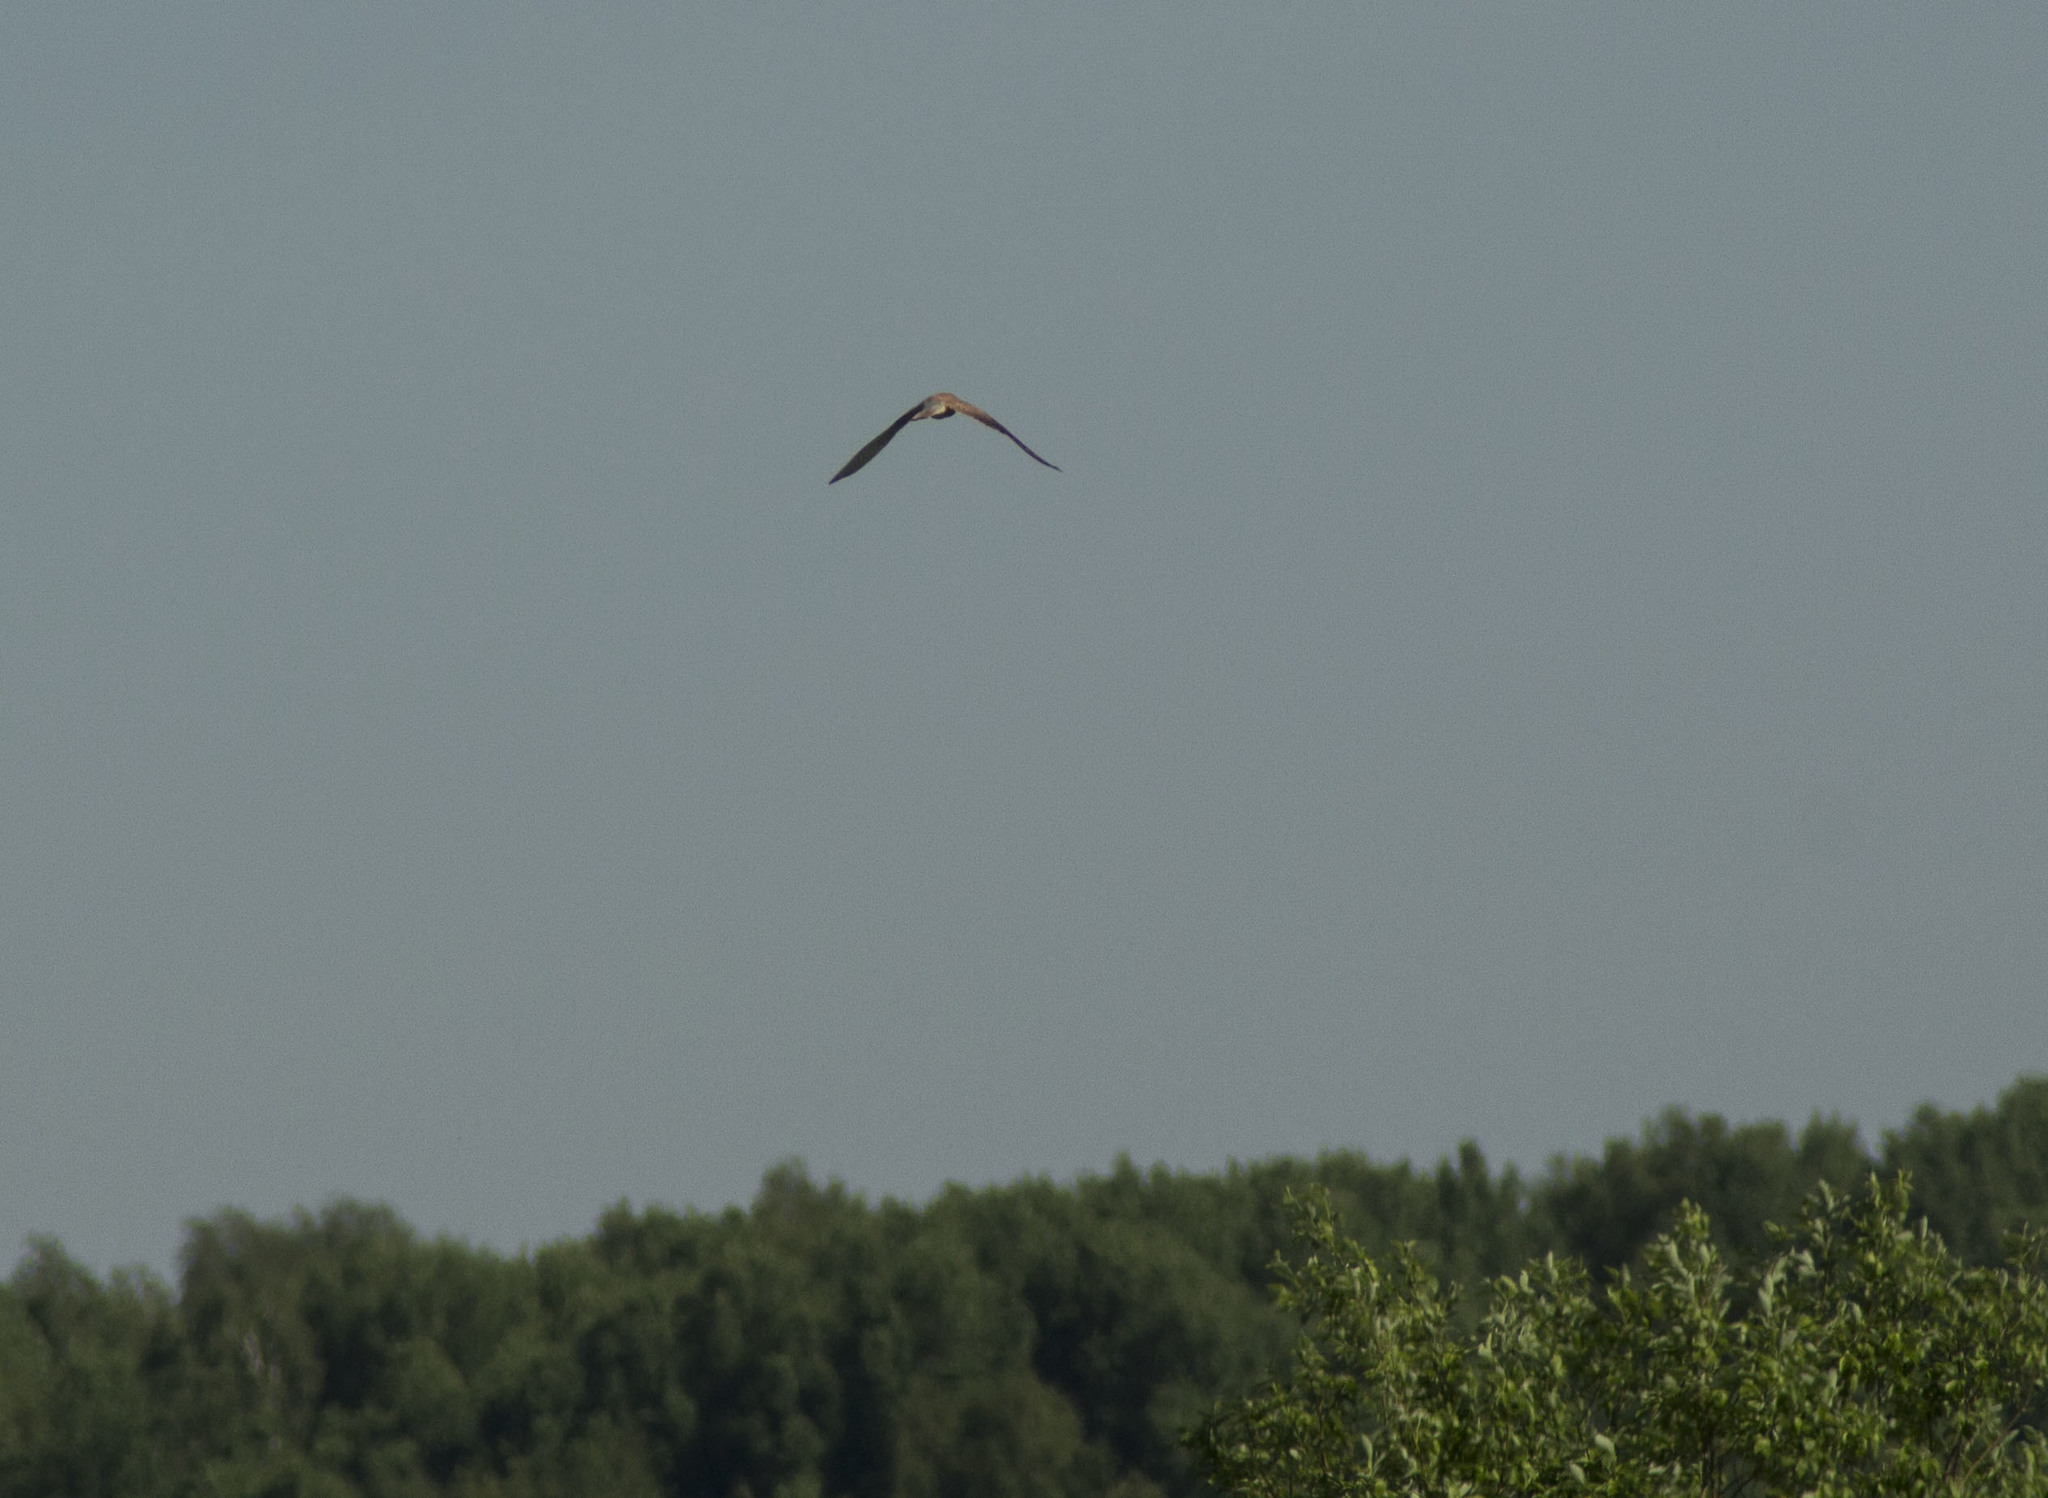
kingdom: Animalia
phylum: Chordata
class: Aves
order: Falconiformes
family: Falconidae
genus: Falco
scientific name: Falco tinnunculus
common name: Common kestrel
